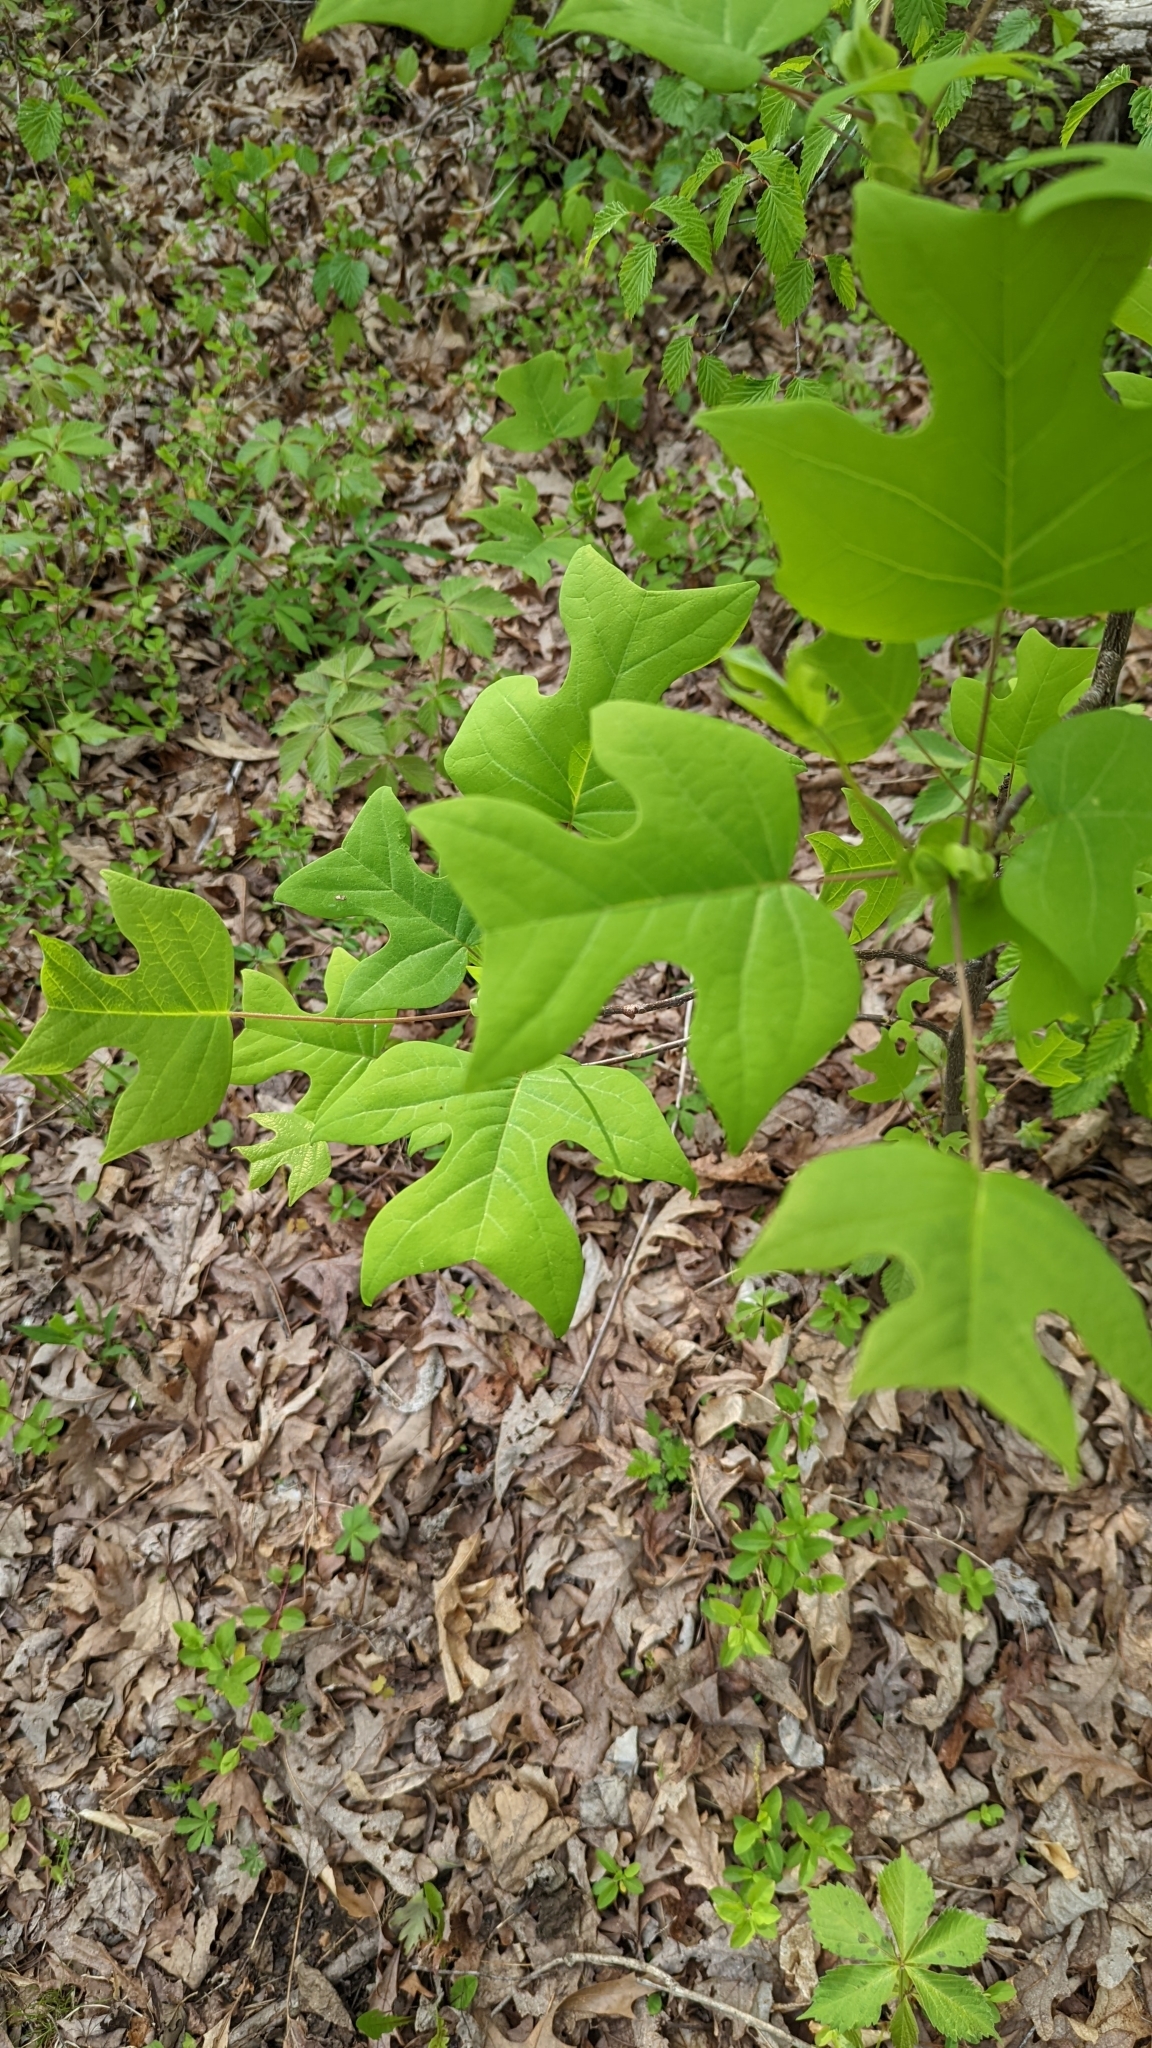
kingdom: Plantae
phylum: Tracheophyta
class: Magnoliopsida
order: Magnoliales
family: Magnoliaceae
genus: Liriodendron
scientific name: Liriodendron tulipifera
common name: Tulip tree
